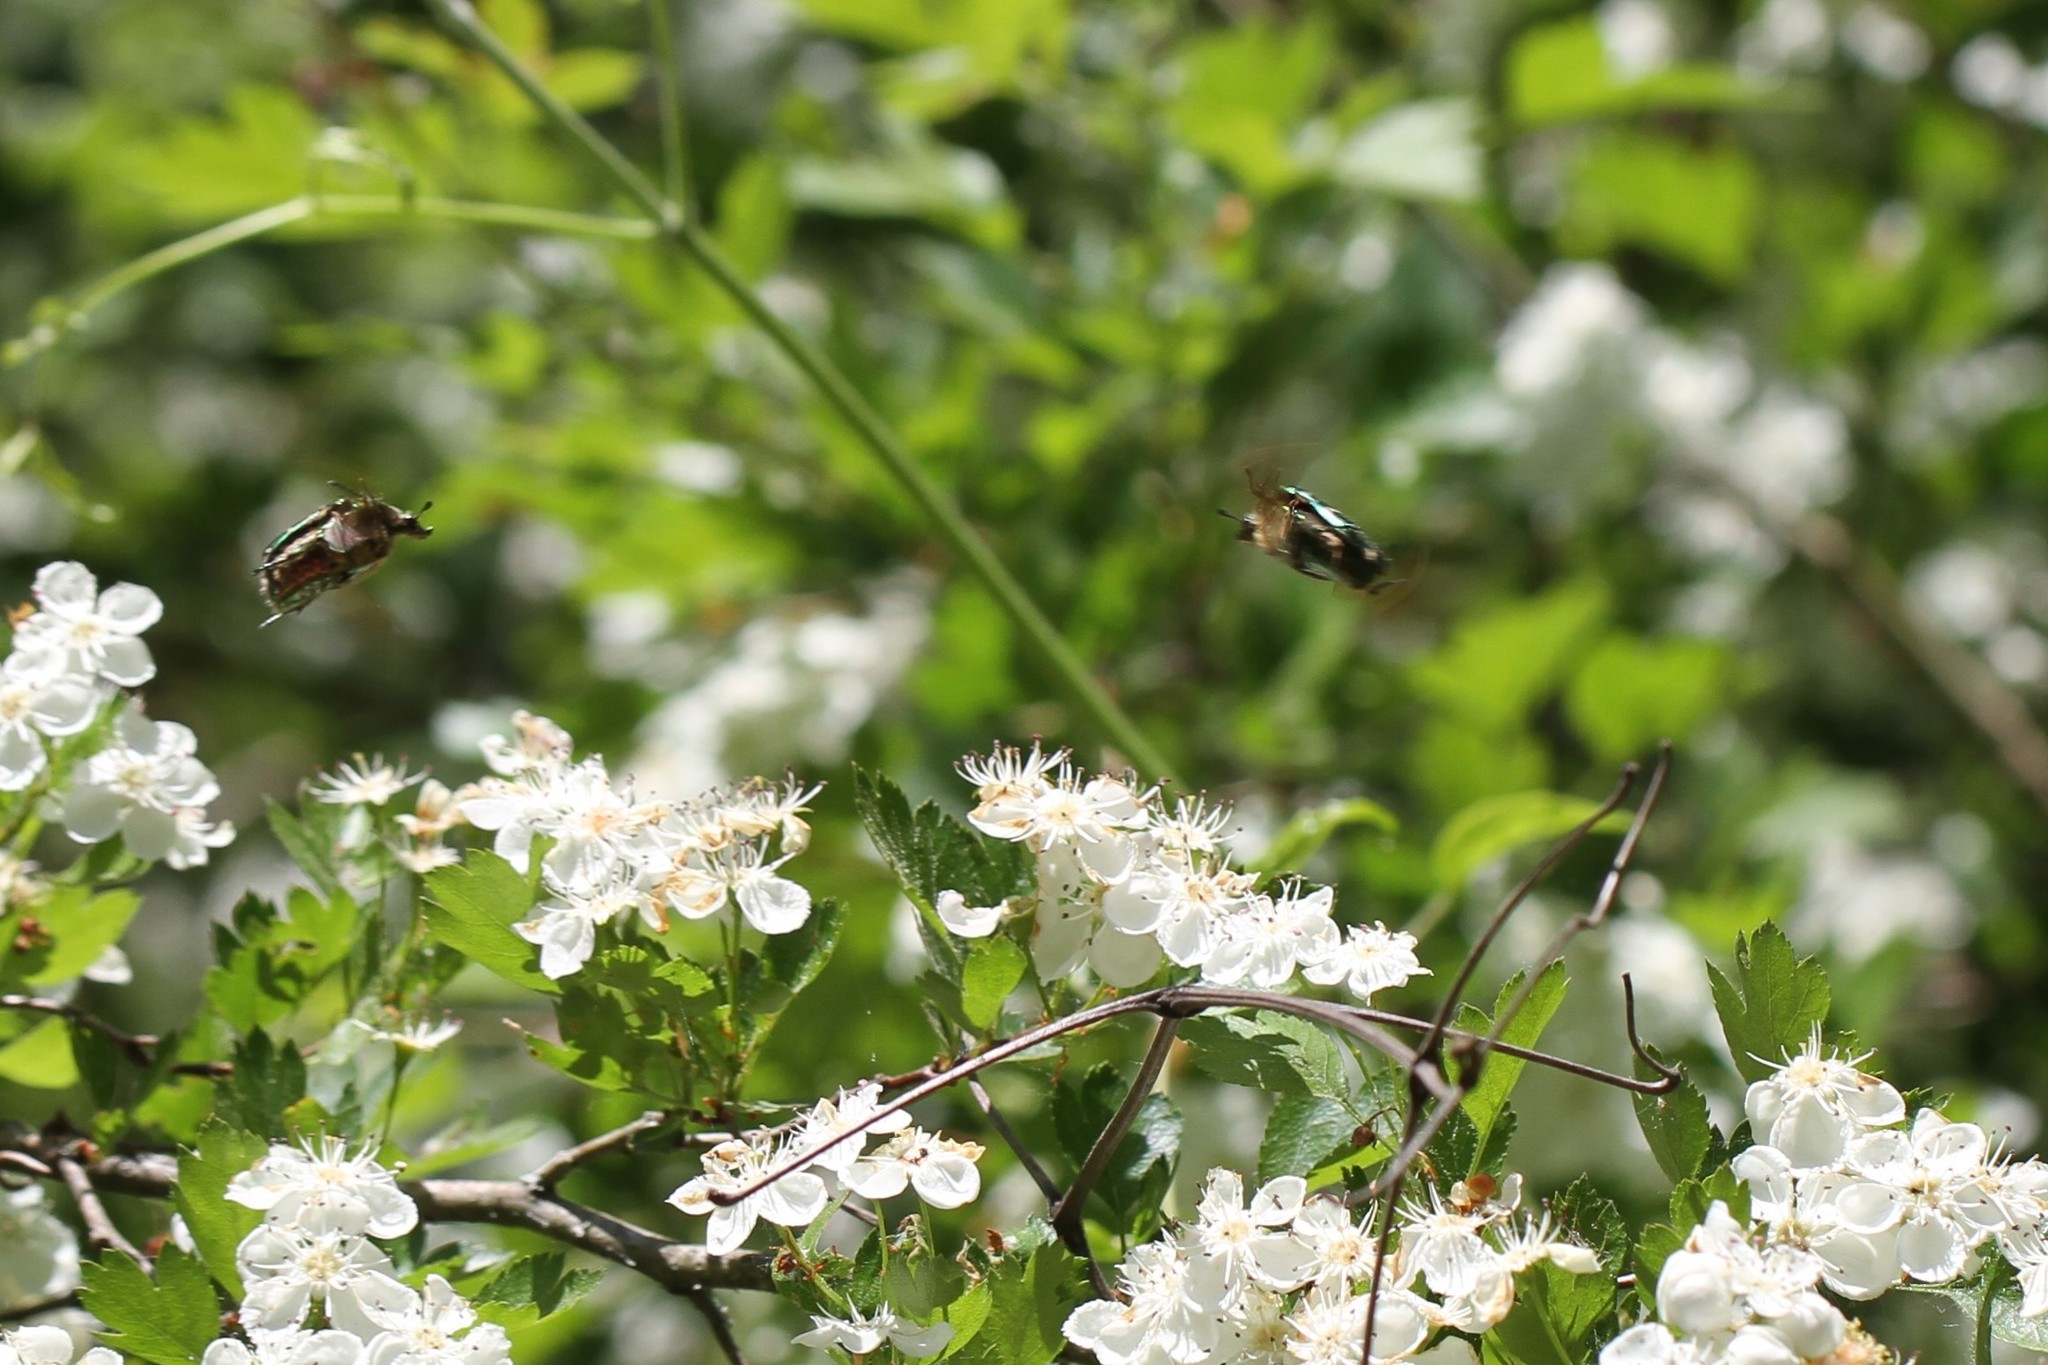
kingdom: Animalia
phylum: Arthropoda
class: Insecta
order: Coleoptera
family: Scarabaeidae
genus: Cetonia
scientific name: Cetonia aurata
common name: Rose chafer
